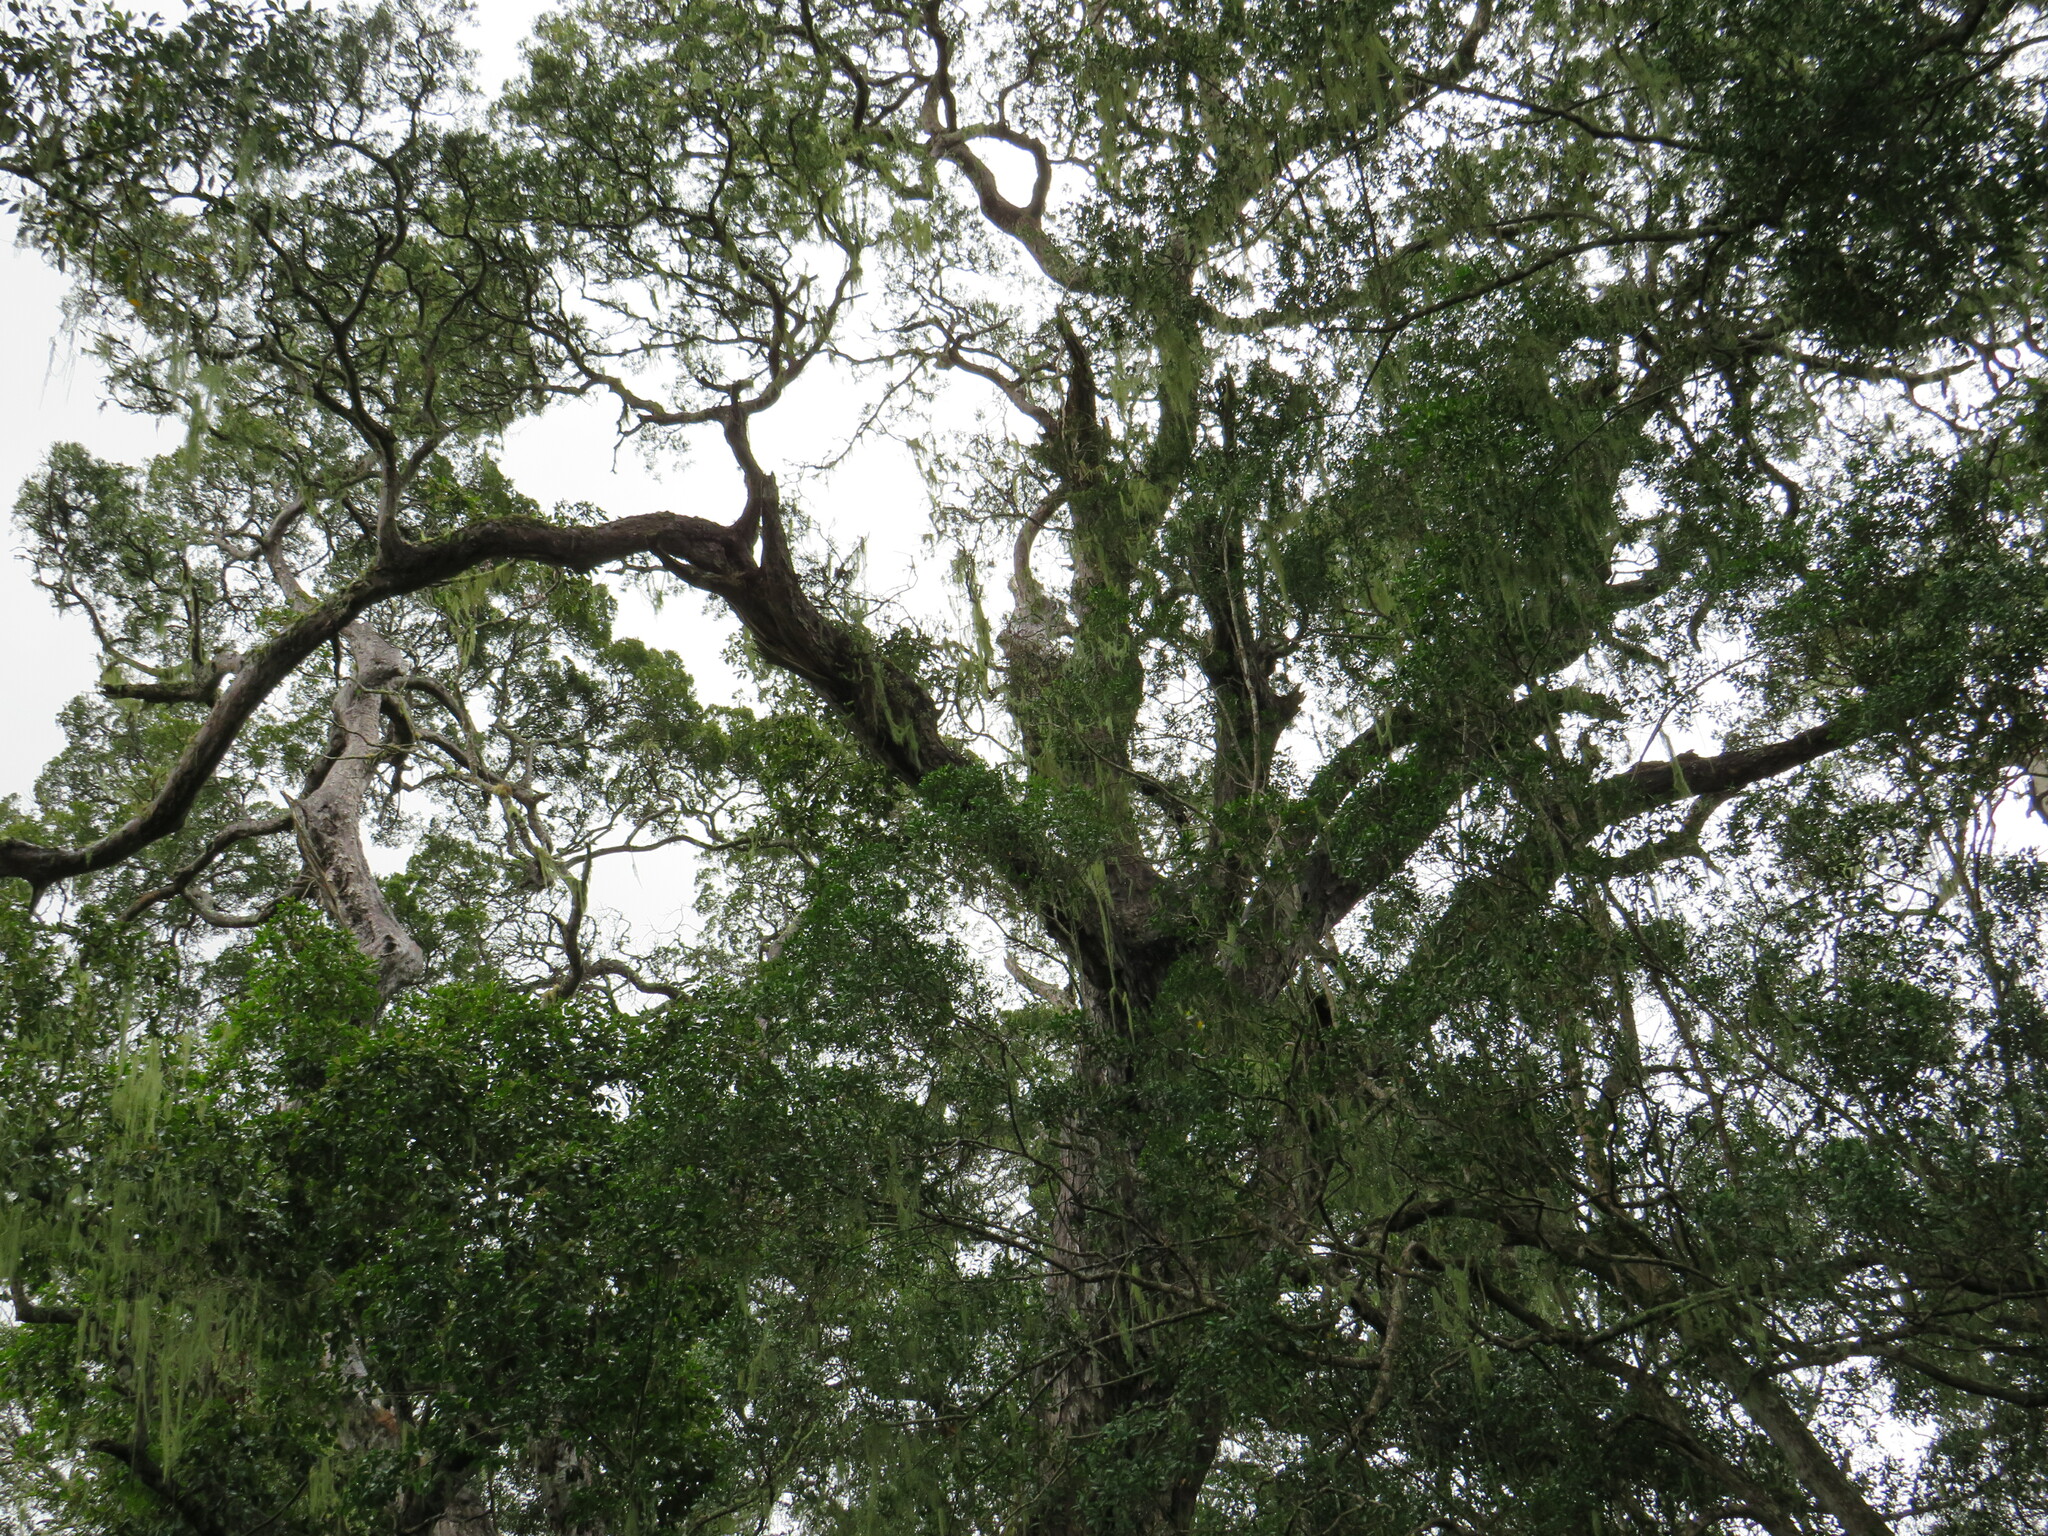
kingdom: Plantae
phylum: Tracheophyta
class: Magnoliopsida
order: Saxifragales
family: Crassulaceae
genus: Crassula
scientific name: Crassula perforata
